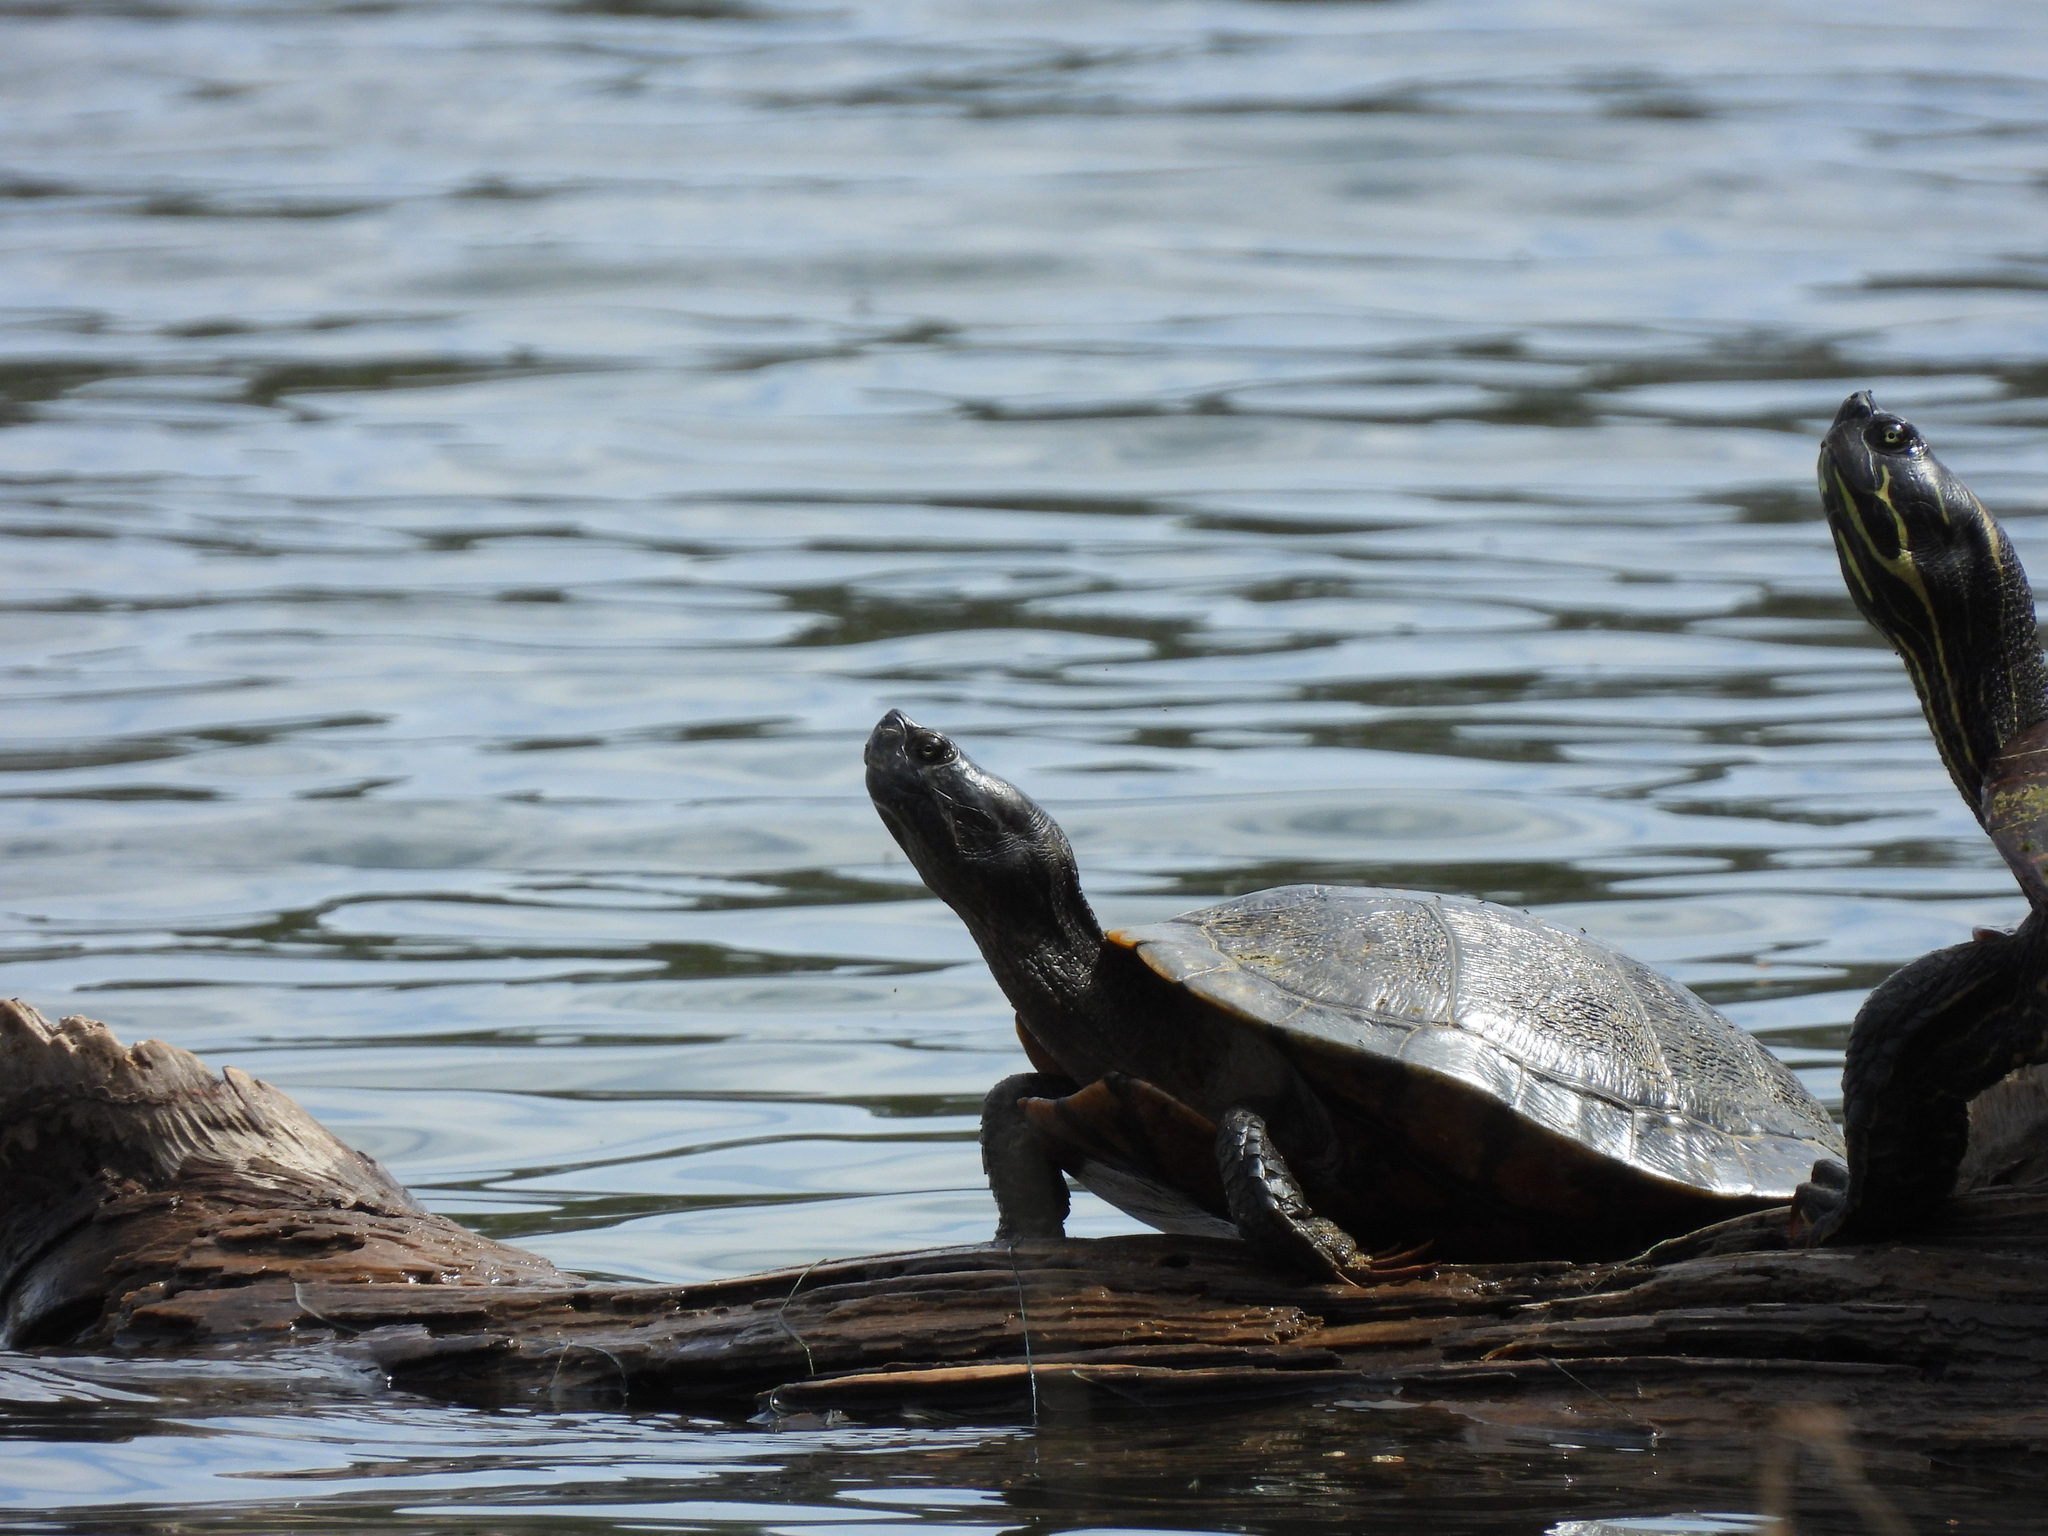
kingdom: Animalia
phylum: Chordata
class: Testudines
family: Emydidae
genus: Trachemys
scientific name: Trachemys scripta
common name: Slider
